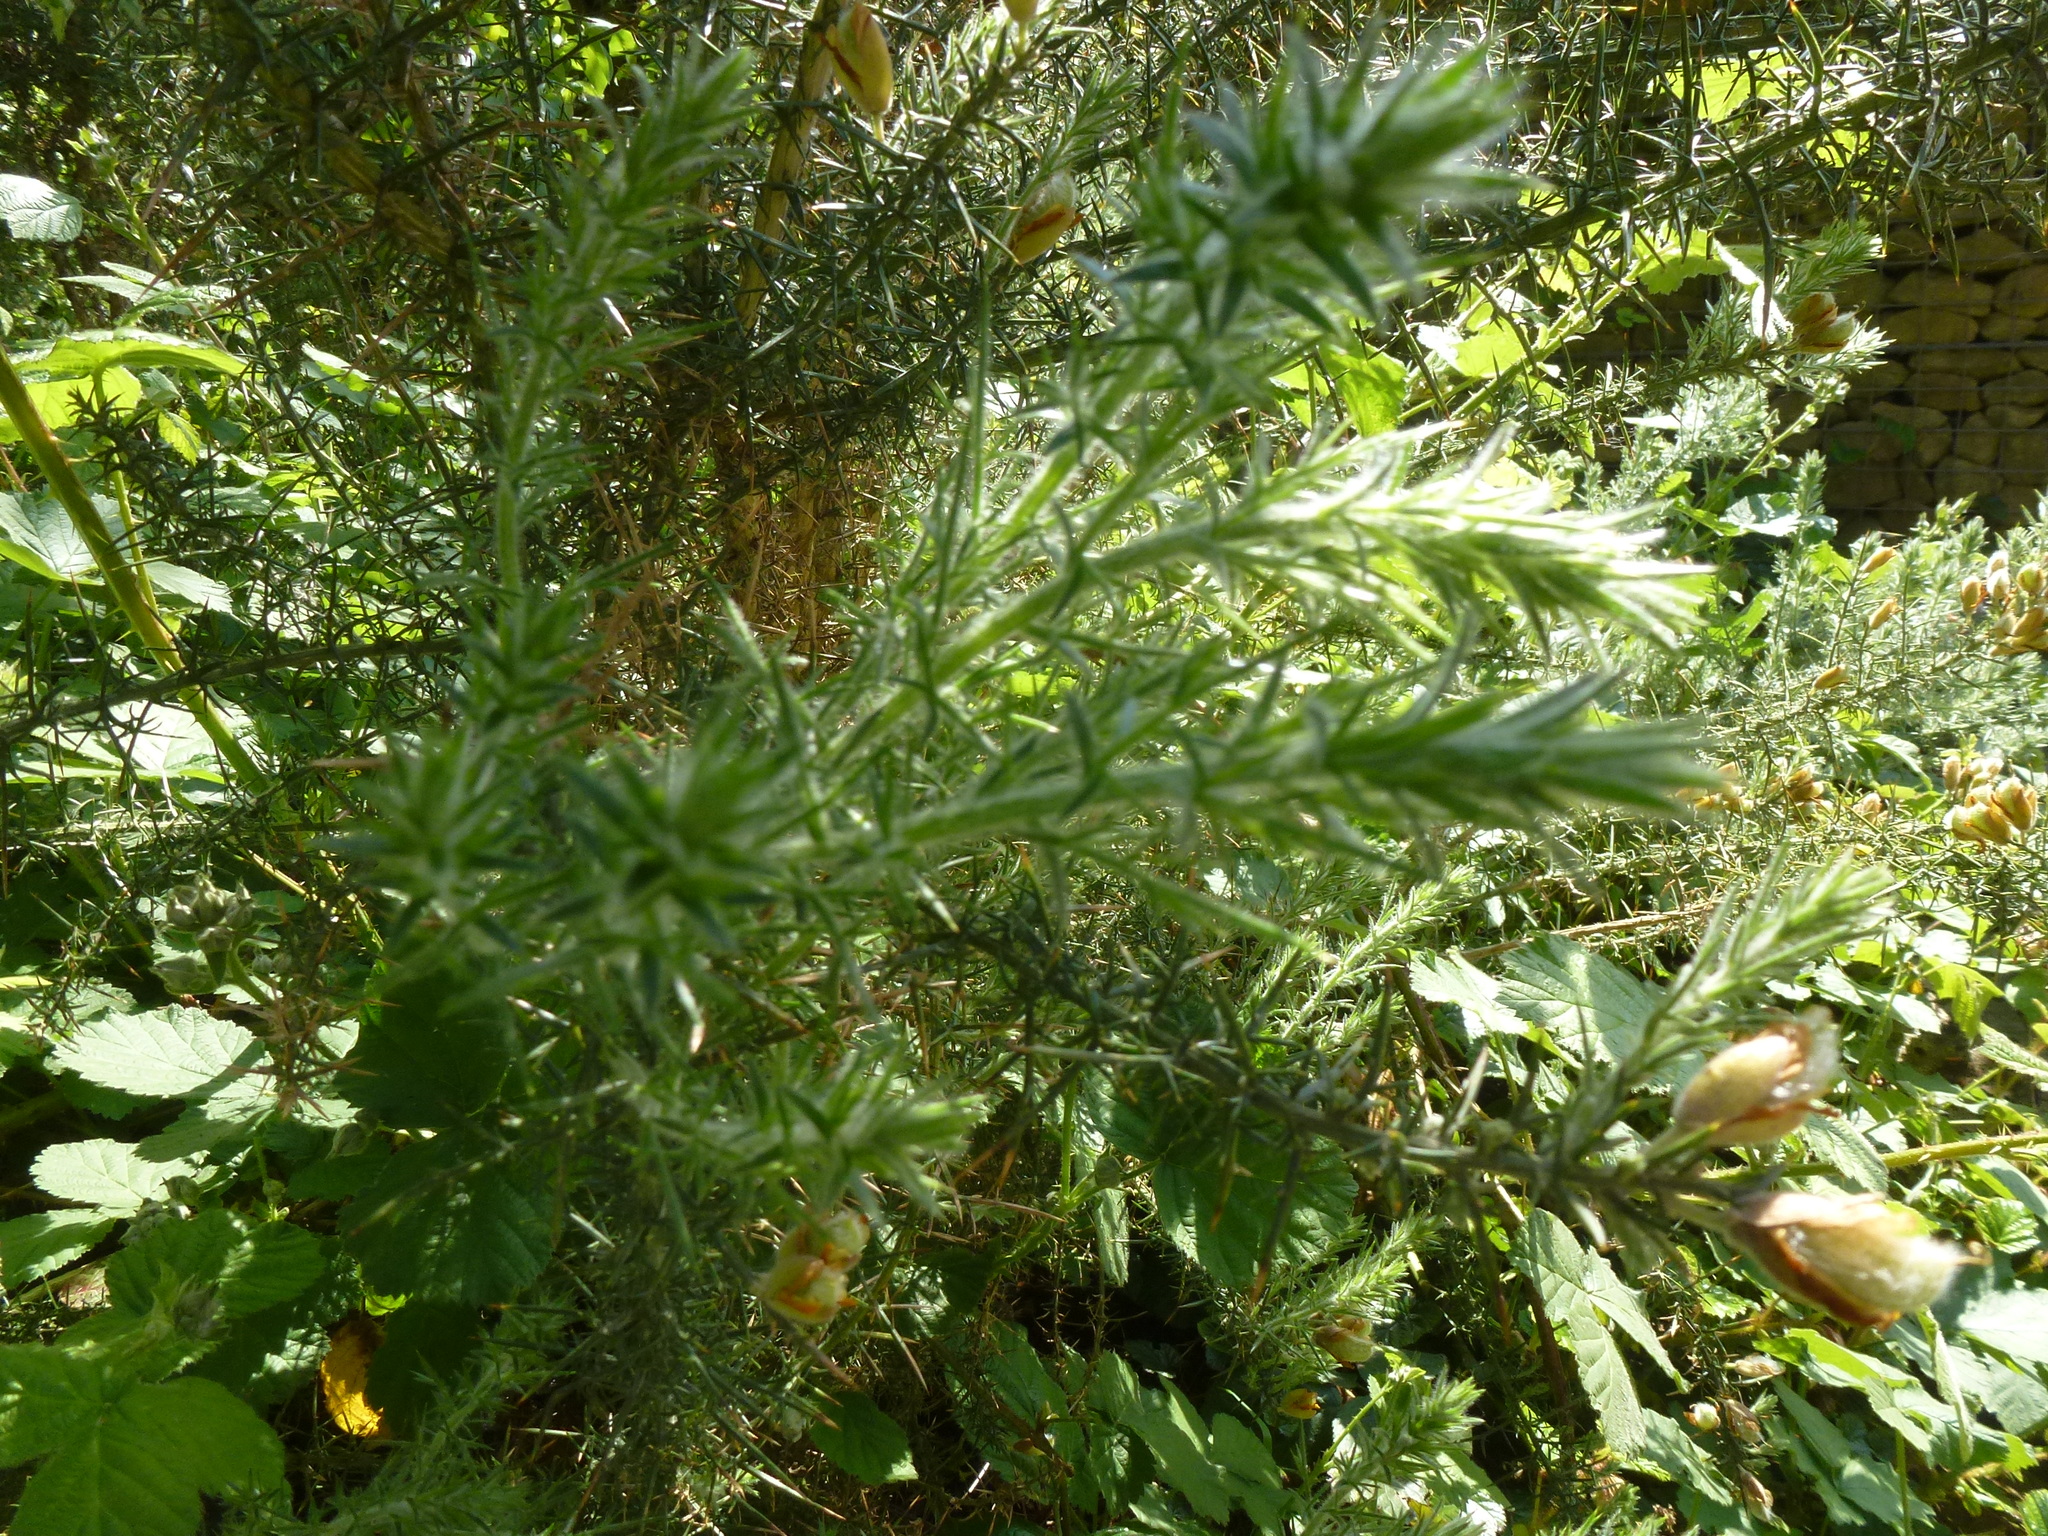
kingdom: Plantae
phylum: Tracheophyta
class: Magnoliopsida
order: Fabales
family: Fabaceae
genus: Ulex
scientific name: Ulex europaeus
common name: Common gorse
